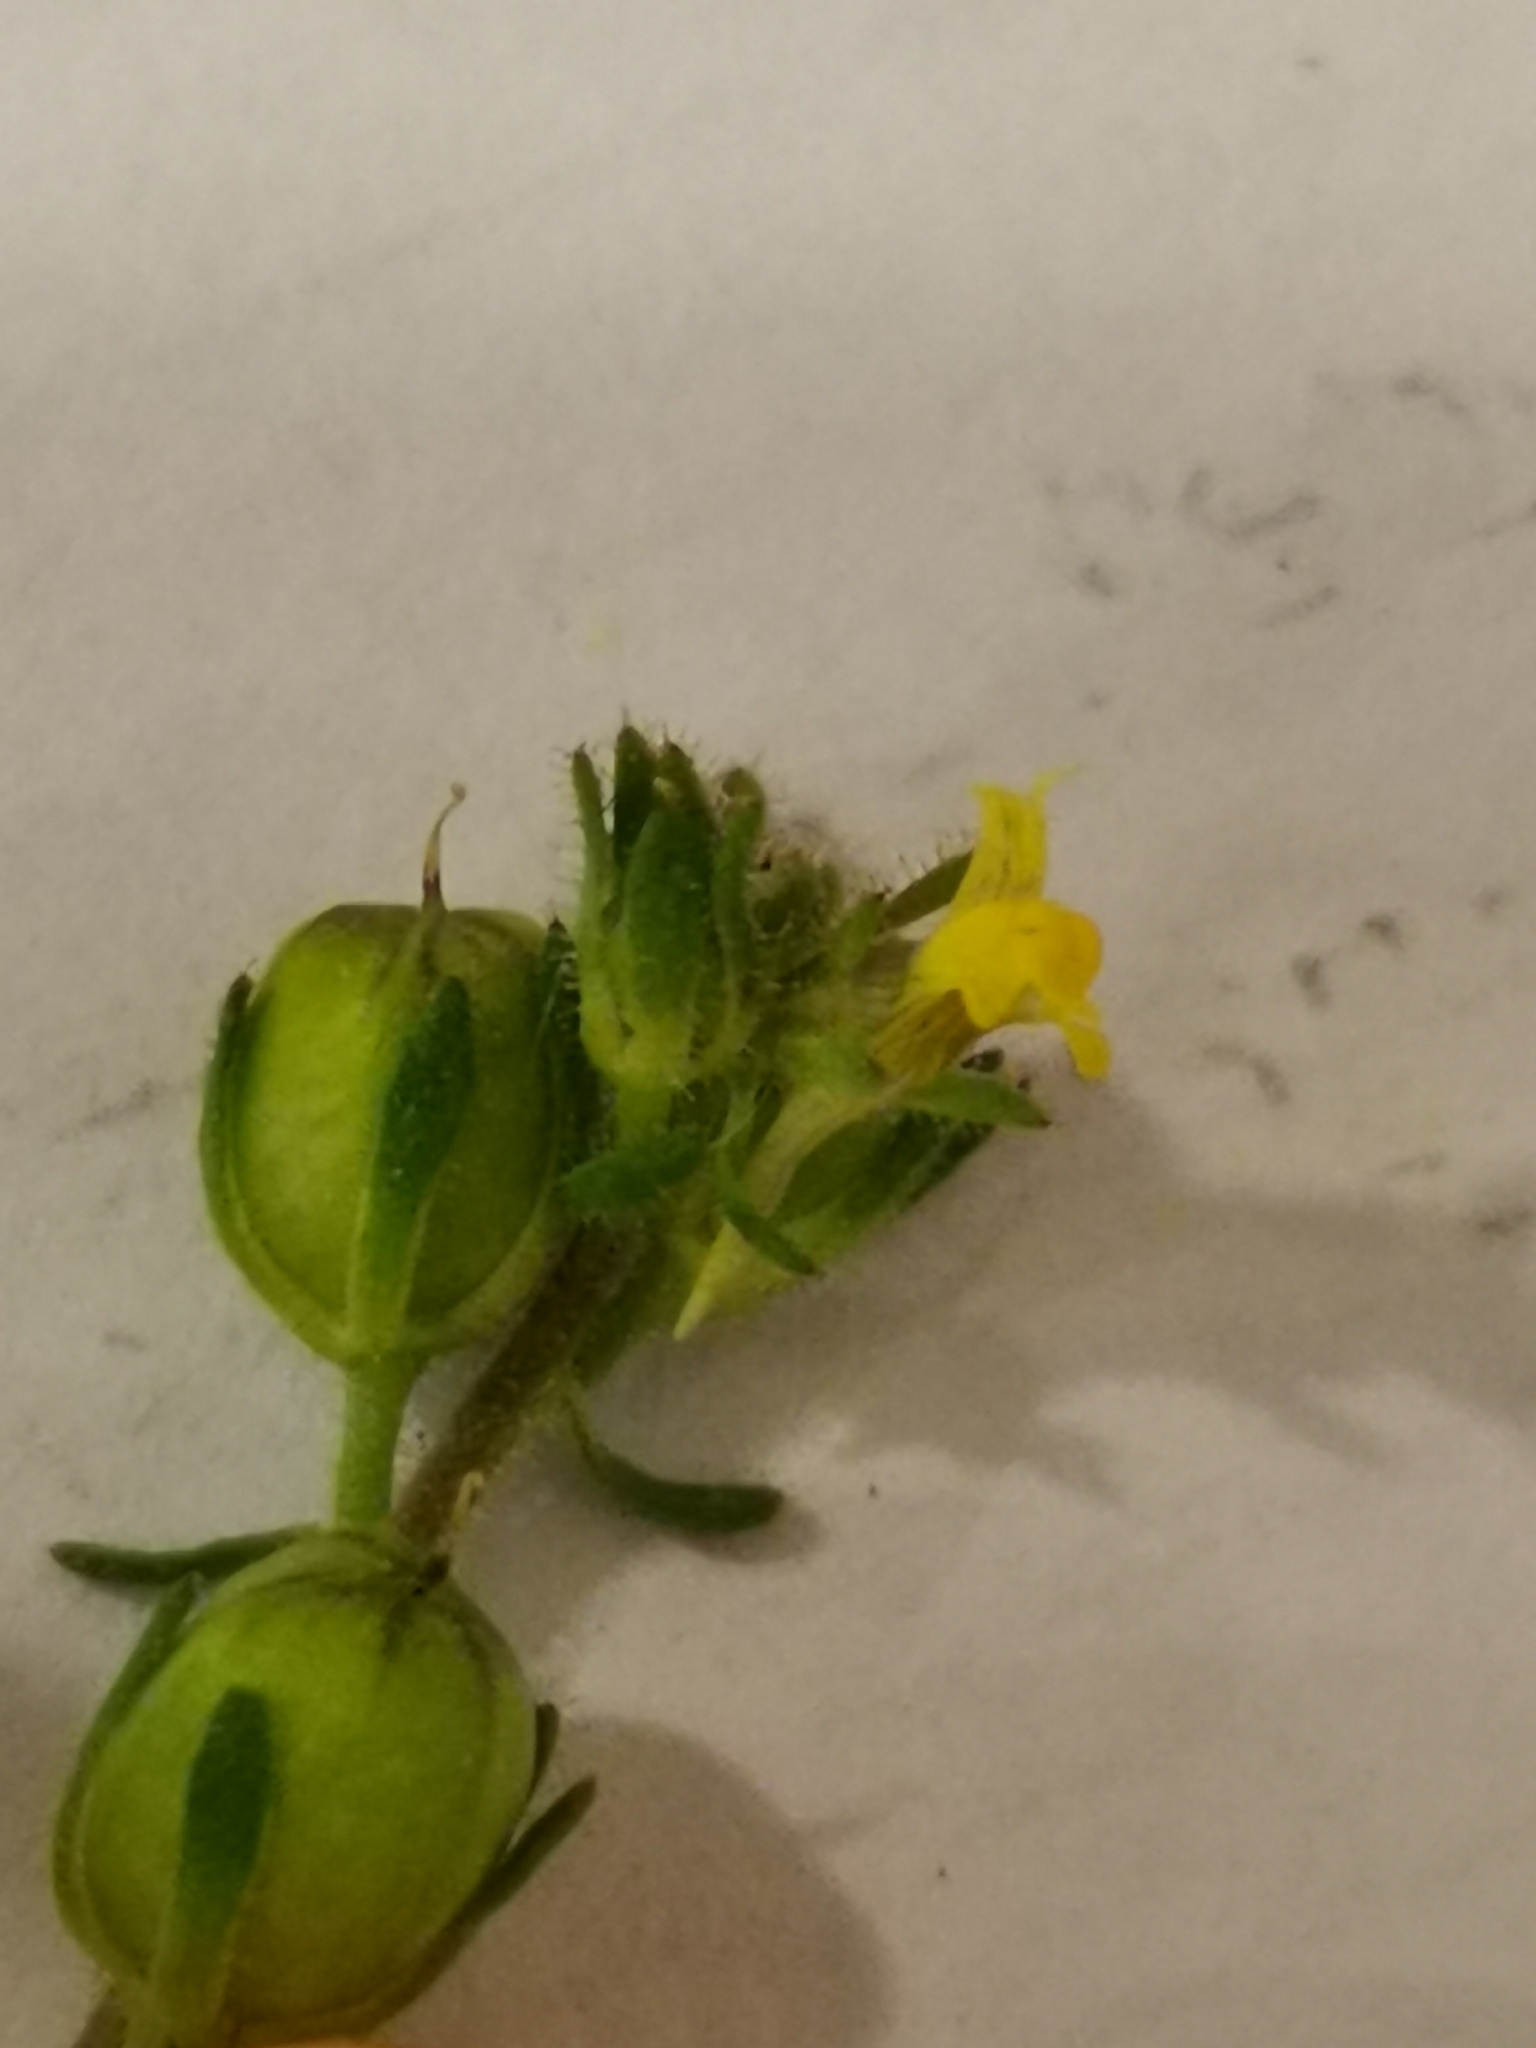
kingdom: Plantae
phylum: Tracheophyta
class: Magnoliopsida
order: Lamiales
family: Plantaginaceae
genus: Linaria
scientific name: Linaria simplex
